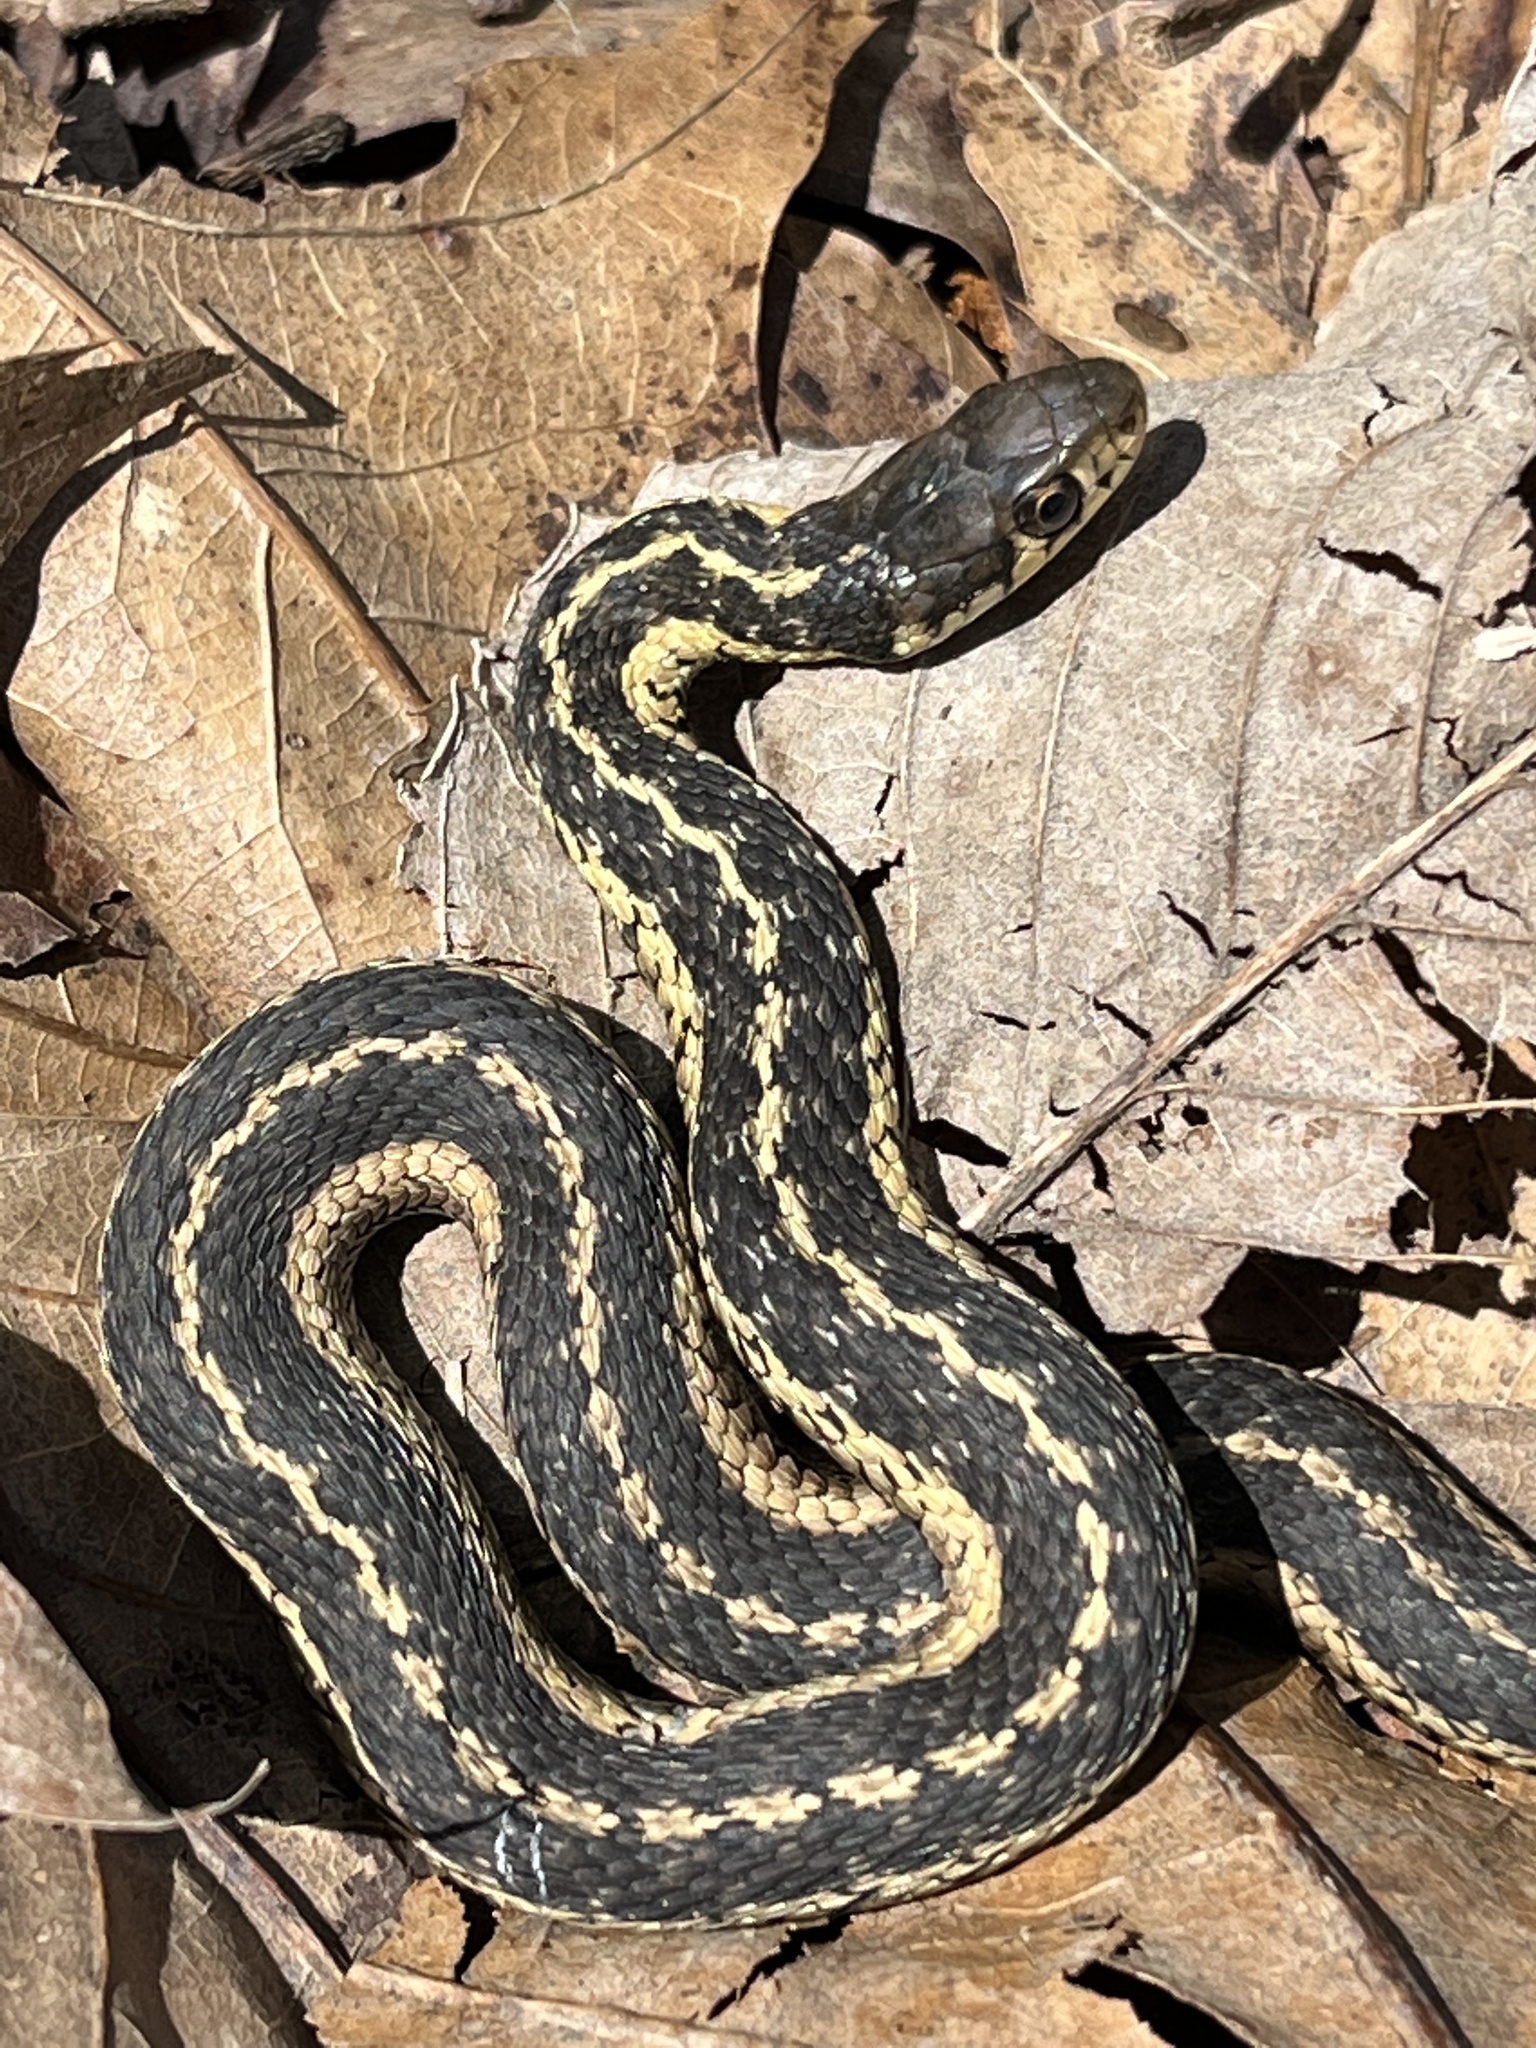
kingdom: Animalia
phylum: Chordata
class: Squamata
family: Colubridae
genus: Thamnophis
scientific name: Thamnophis sirtalis
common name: Common garter snake
